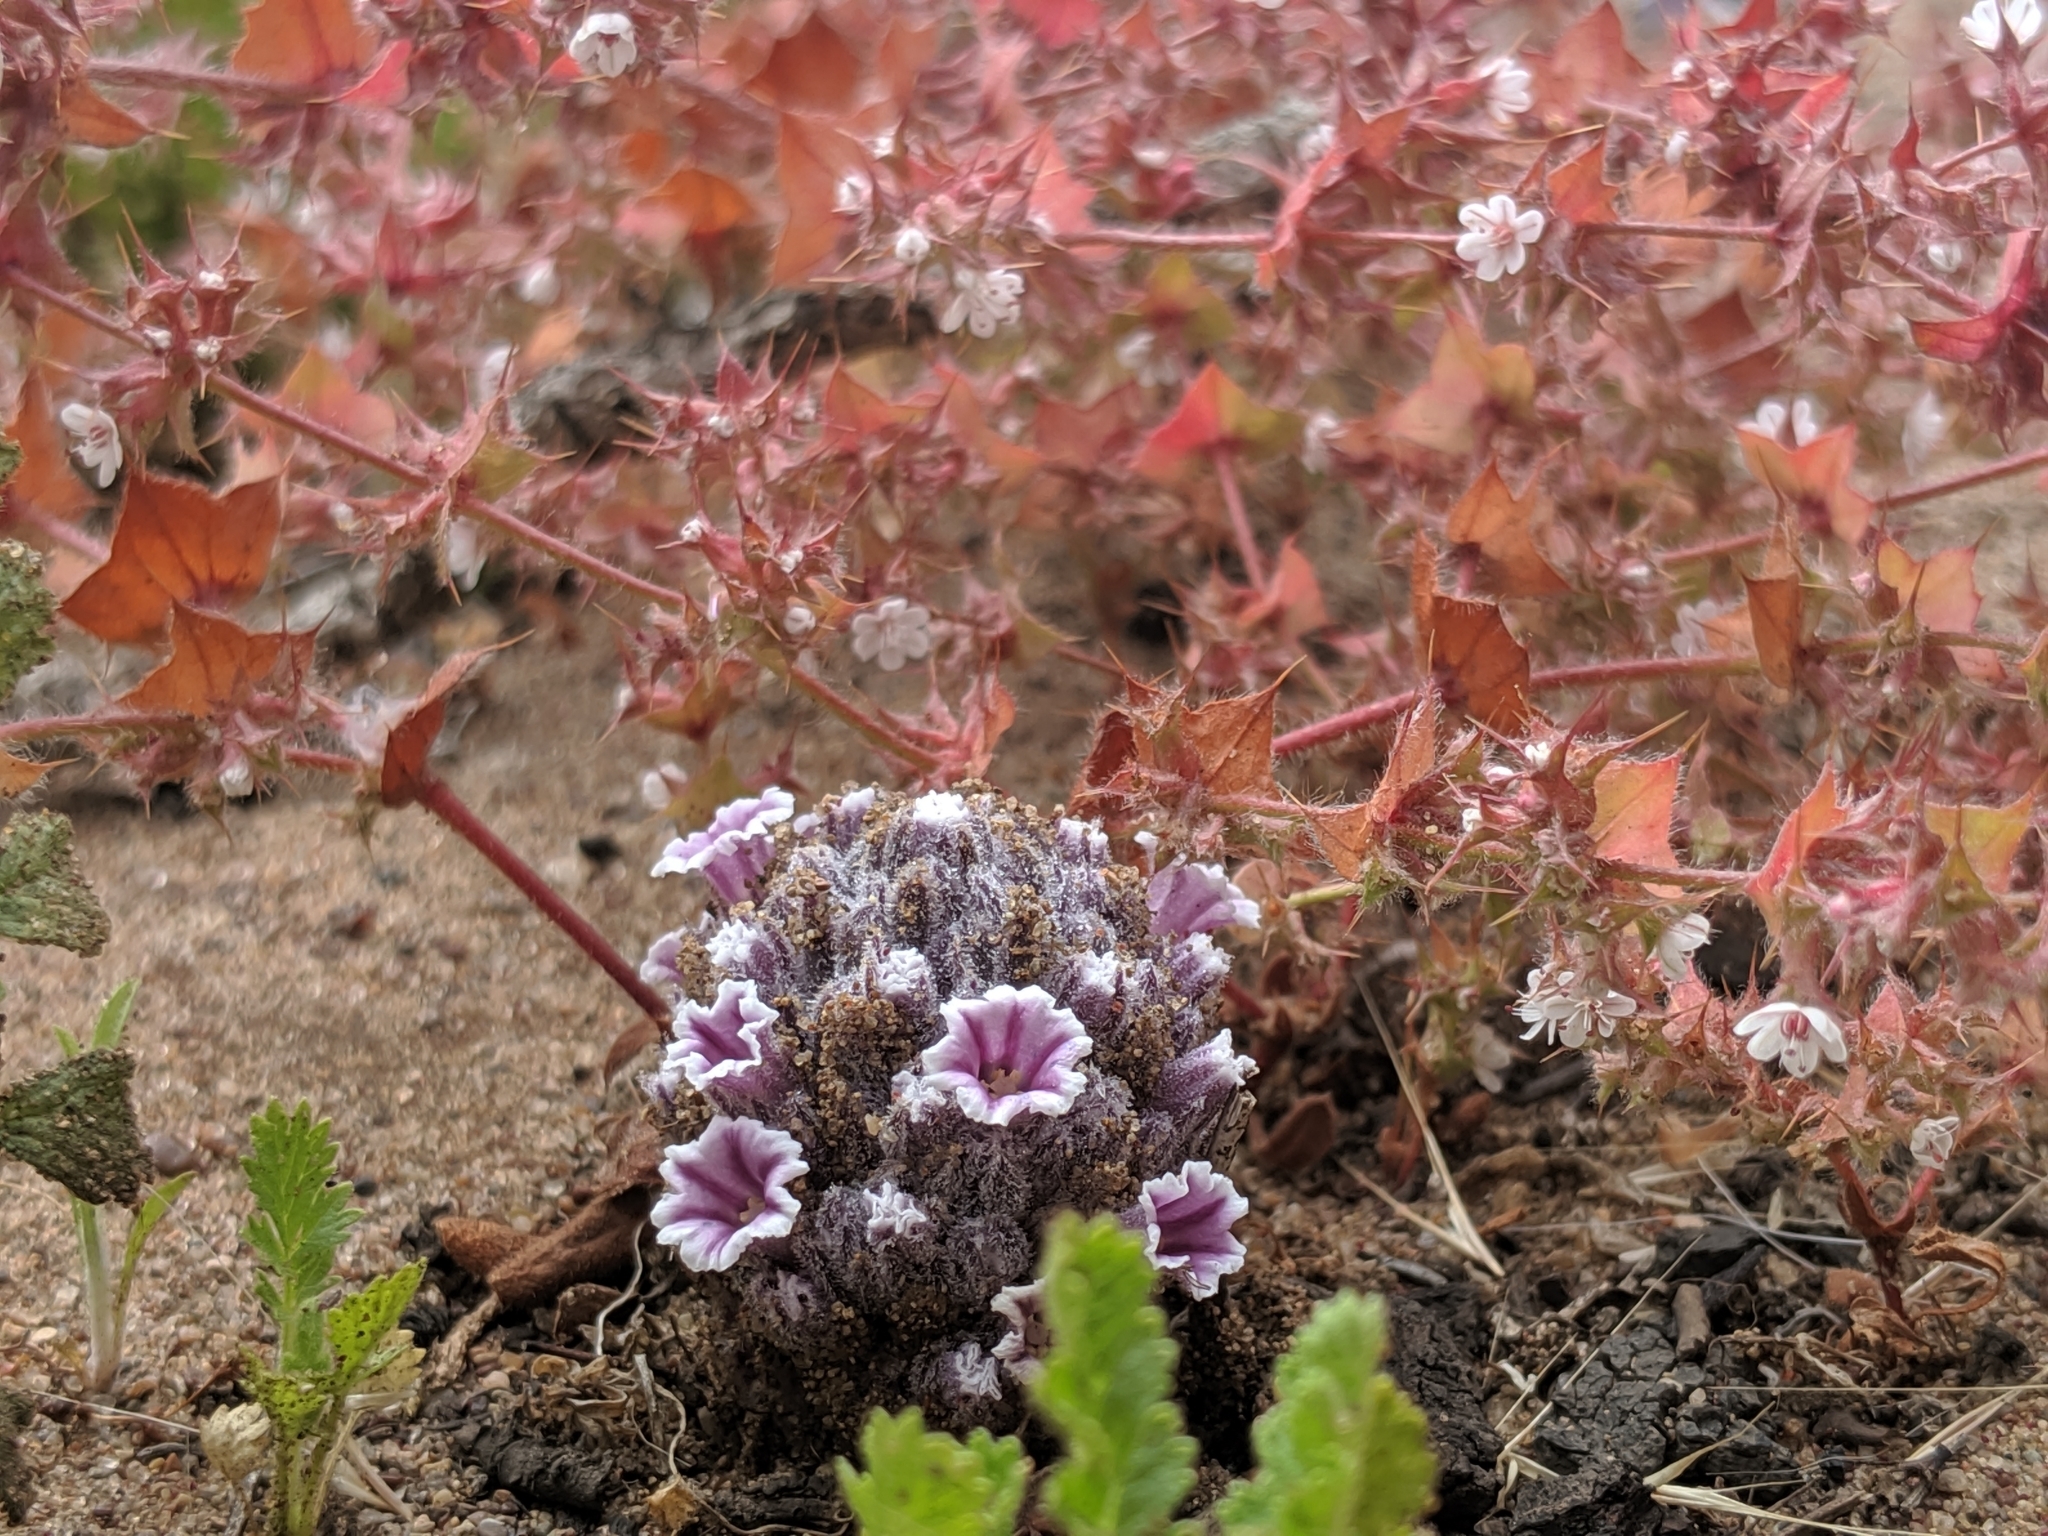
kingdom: Plantae
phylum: Tracheophyta
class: Magnoliopsida
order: Boraginales
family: Lennoaceae
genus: Pholisma
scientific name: Pholisma arenarium
